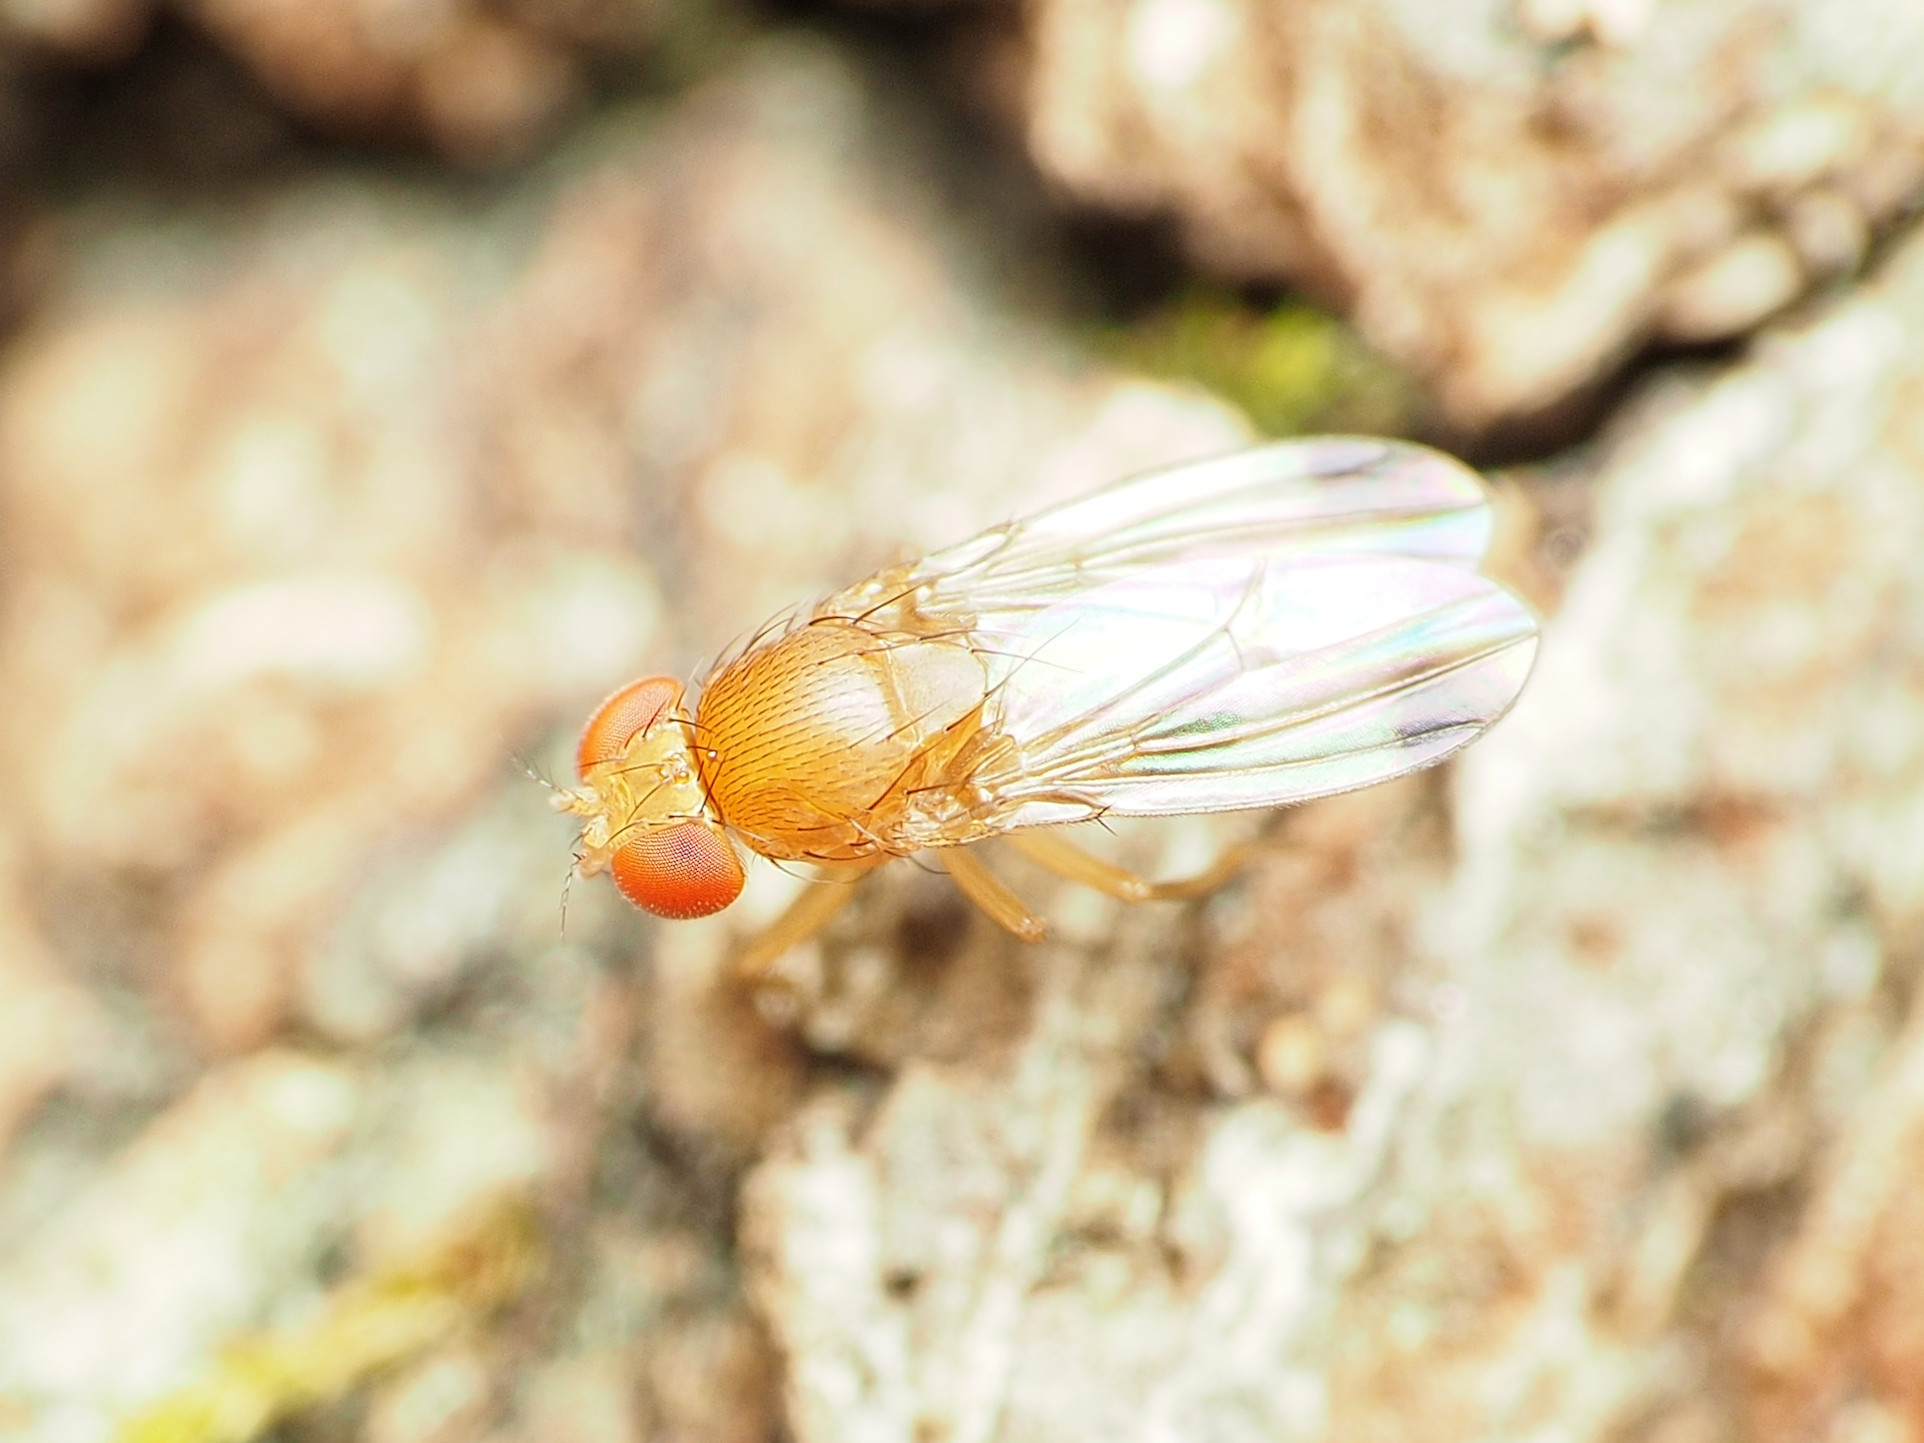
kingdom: Animalia
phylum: Arthropoda
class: Insecta
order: Diptera
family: Drosophilidae
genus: Drosophila
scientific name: Drosophila suzukii
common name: Spotted-wing drosophila
